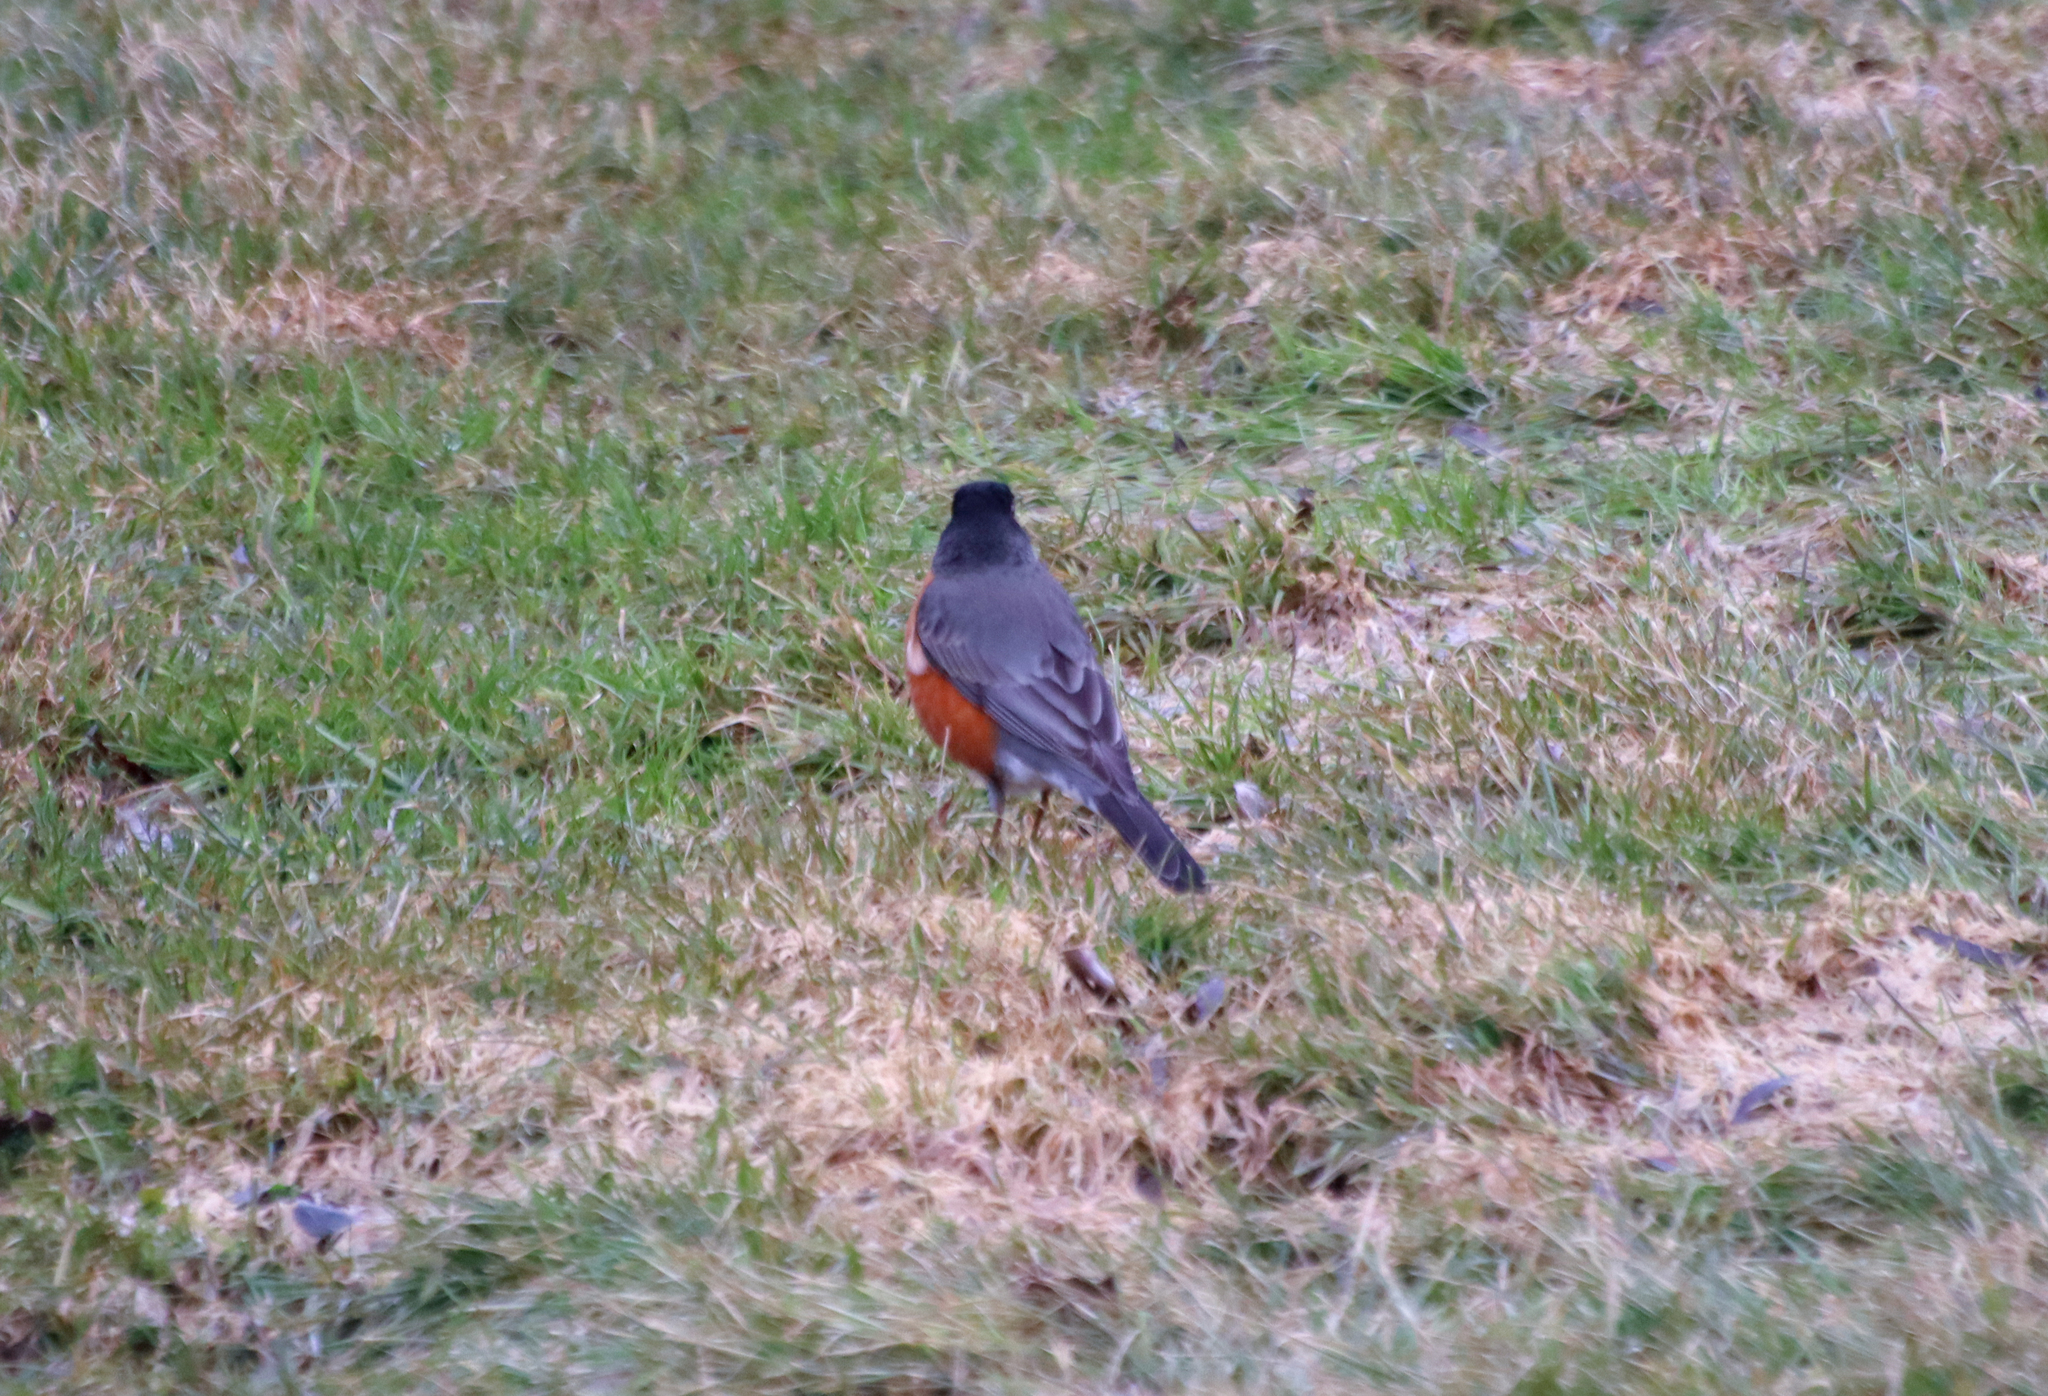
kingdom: Animalia
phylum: Chordata
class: Aves
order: Passeriformes
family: Turdidae
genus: Turdus
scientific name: Turdus migratorius
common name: American robin
